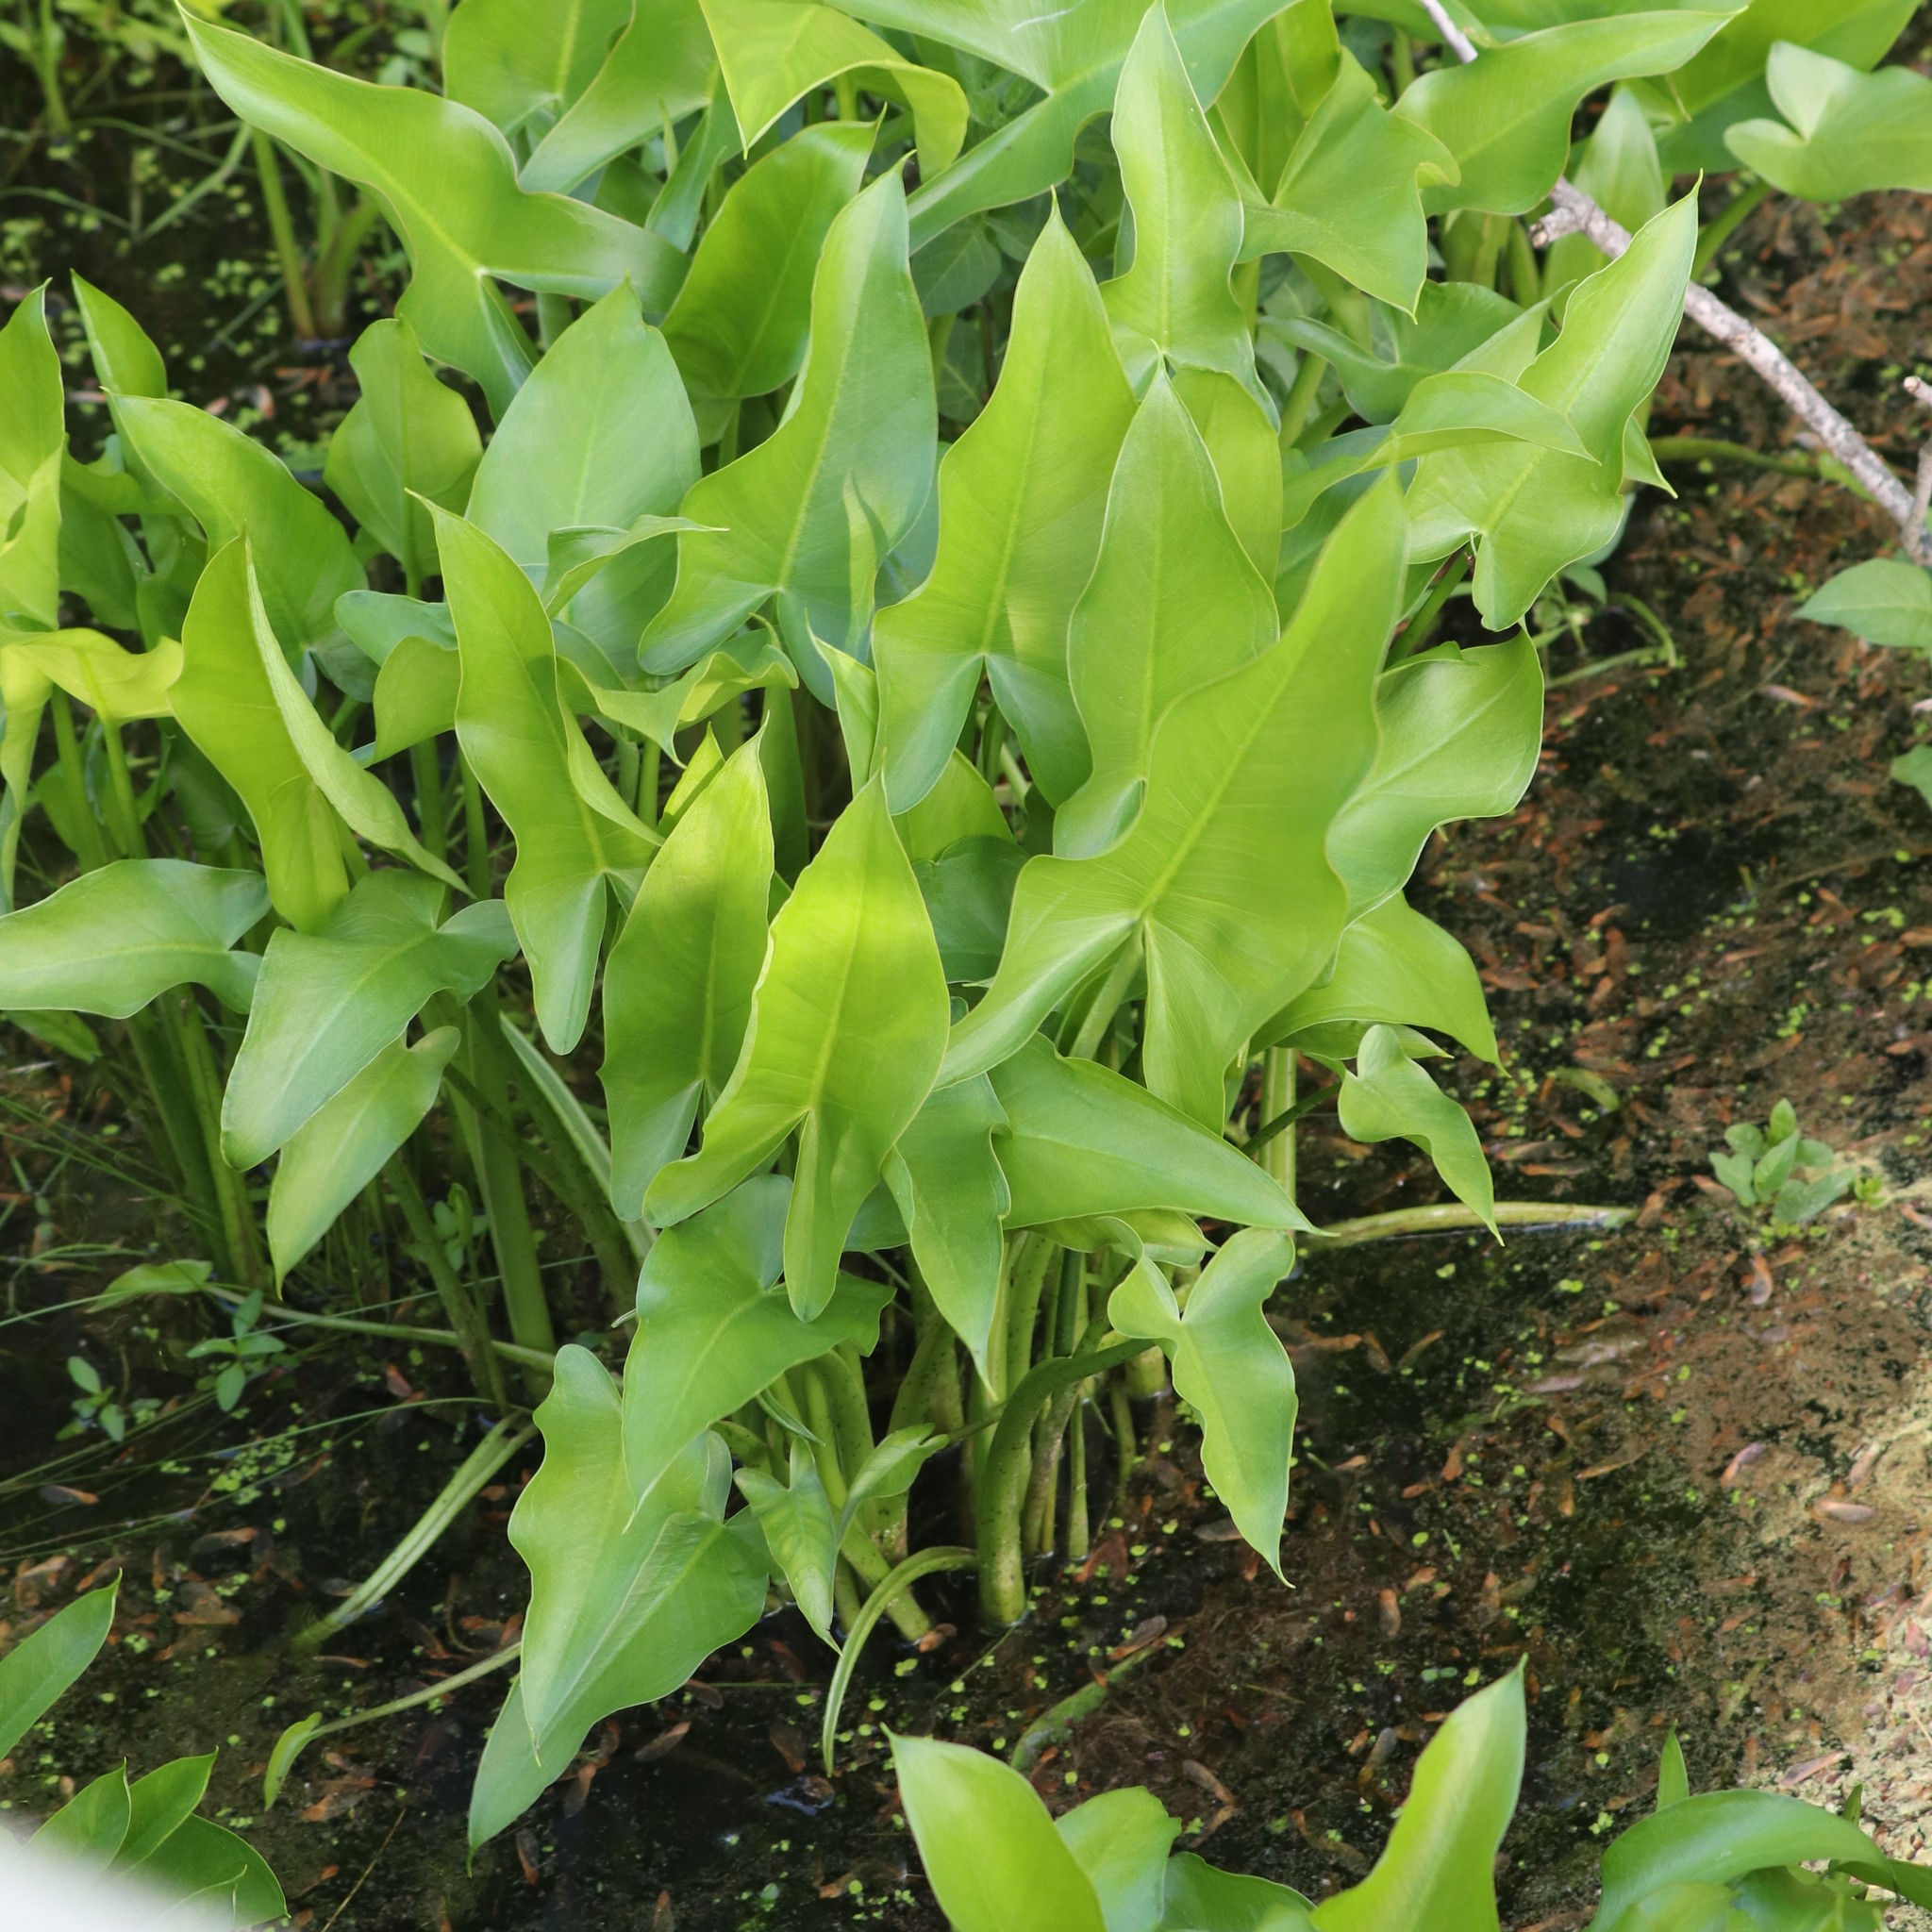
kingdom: Plantae
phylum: Tracheophyta
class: Liliopsida
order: Alismatales
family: Araceae
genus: Peltandra
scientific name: Peltandra virginica
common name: Arrow arum
